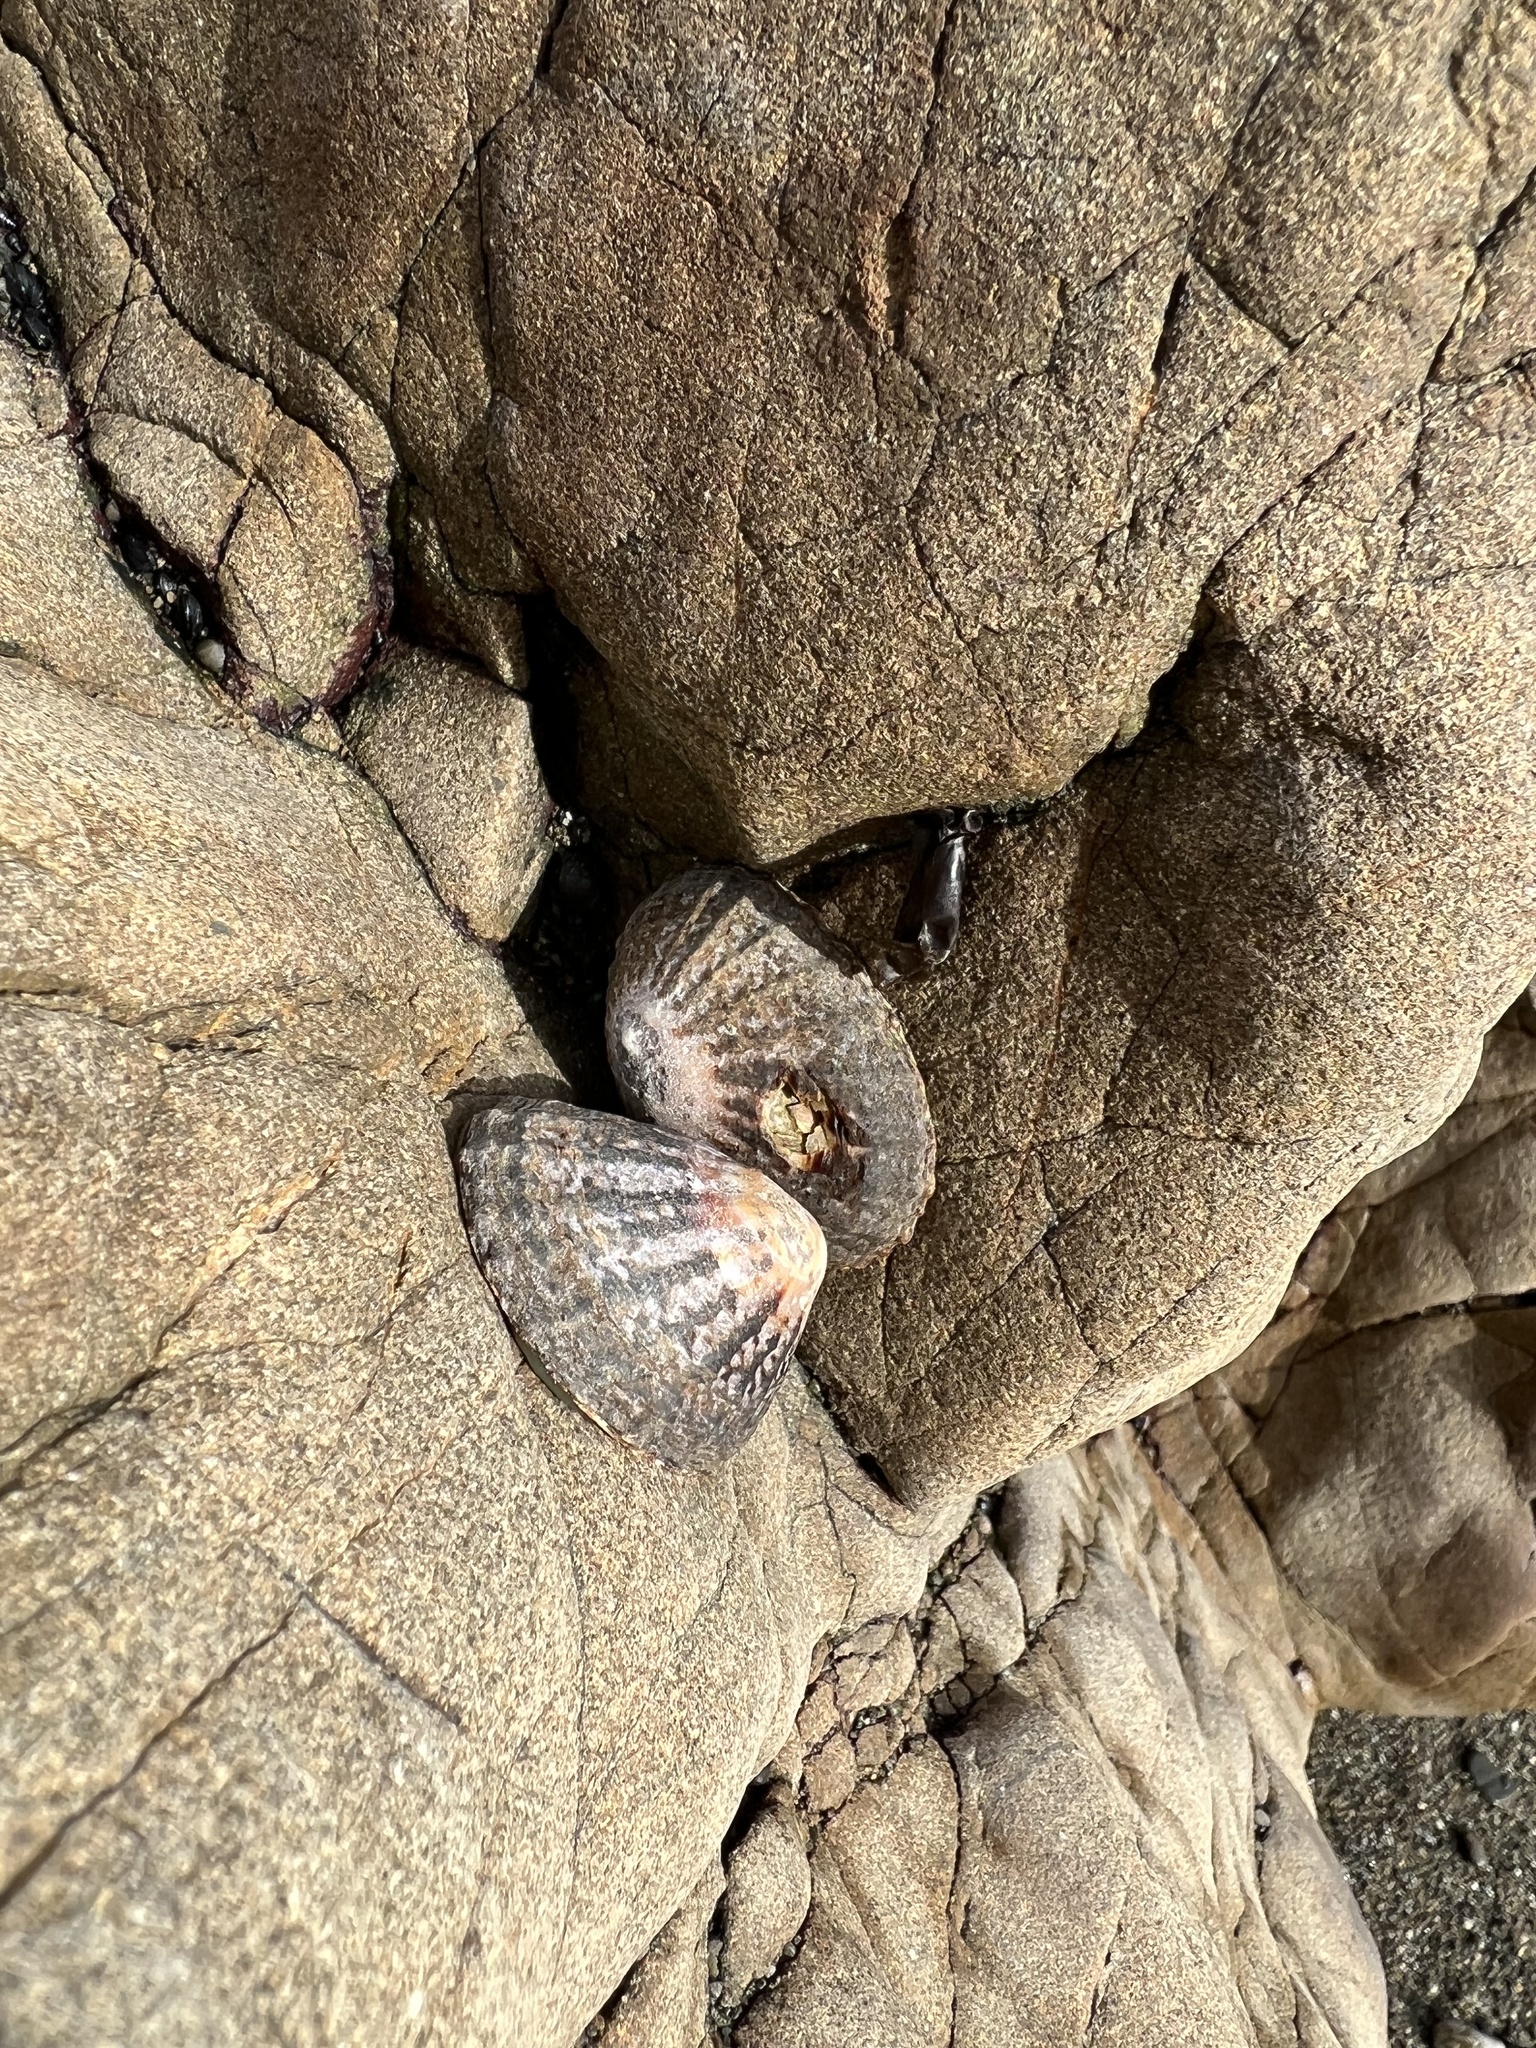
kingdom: Animalia
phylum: Mollusca
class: Gastropoda
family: Nacellidae
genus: Cellana
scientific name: Cellana denticulata
